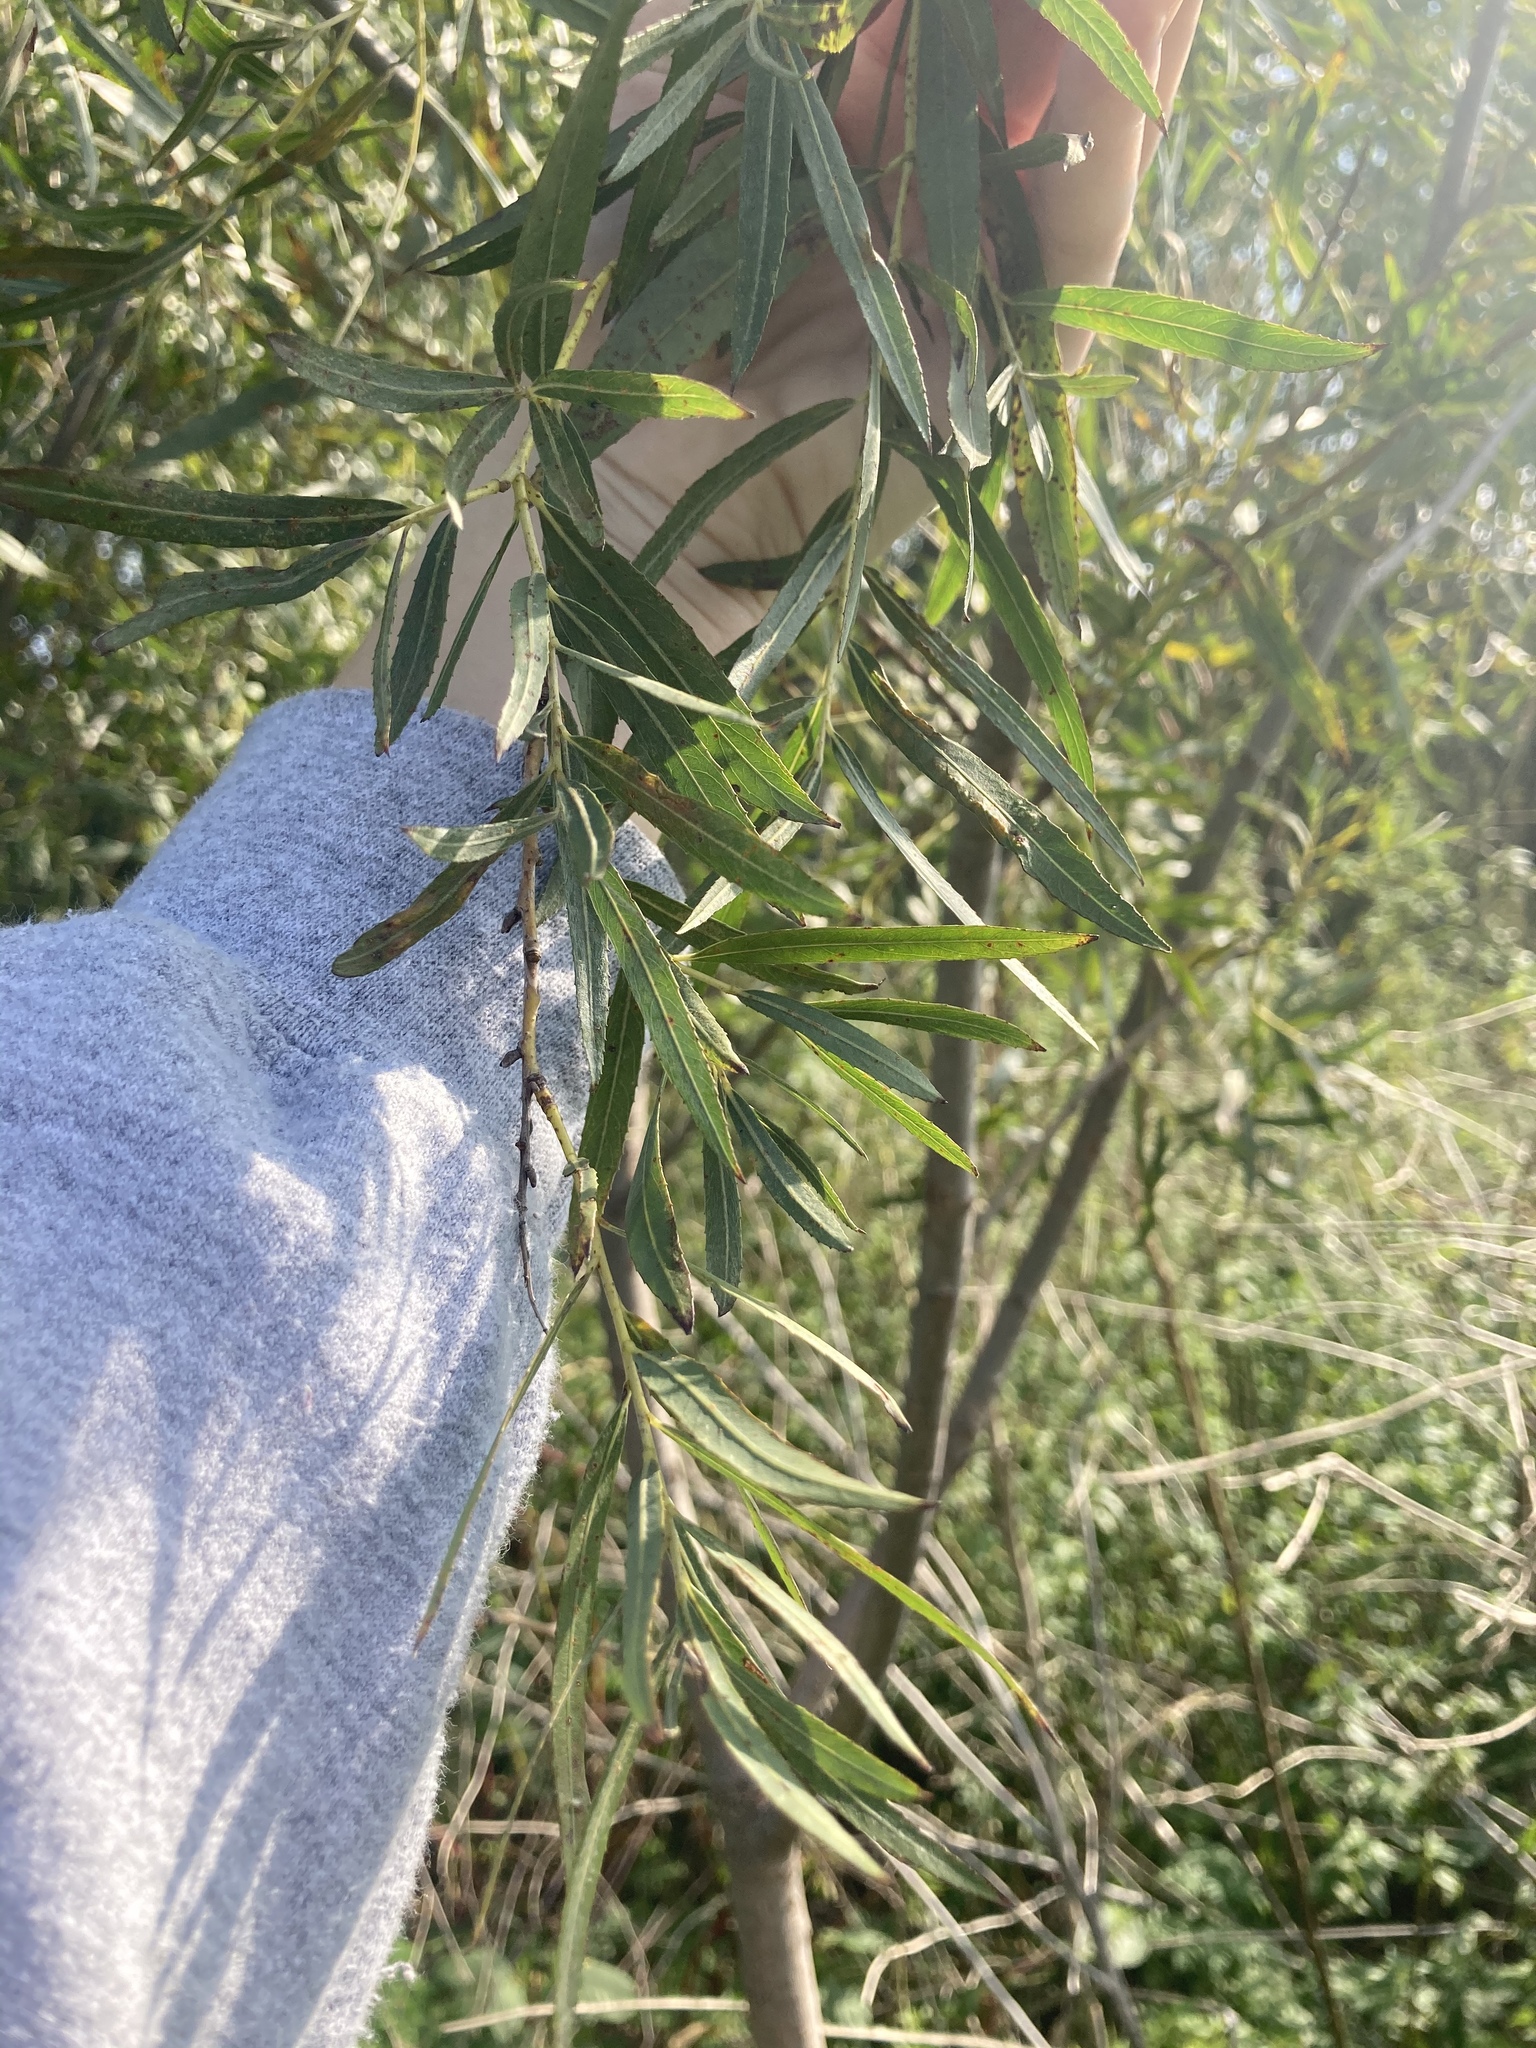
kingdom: Plantae
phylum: Tracheophyta
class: Magnoliopsida
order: Malpighiales
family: Salicaceae
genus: Salix
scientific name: Salix interior
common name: Sandbar willow
